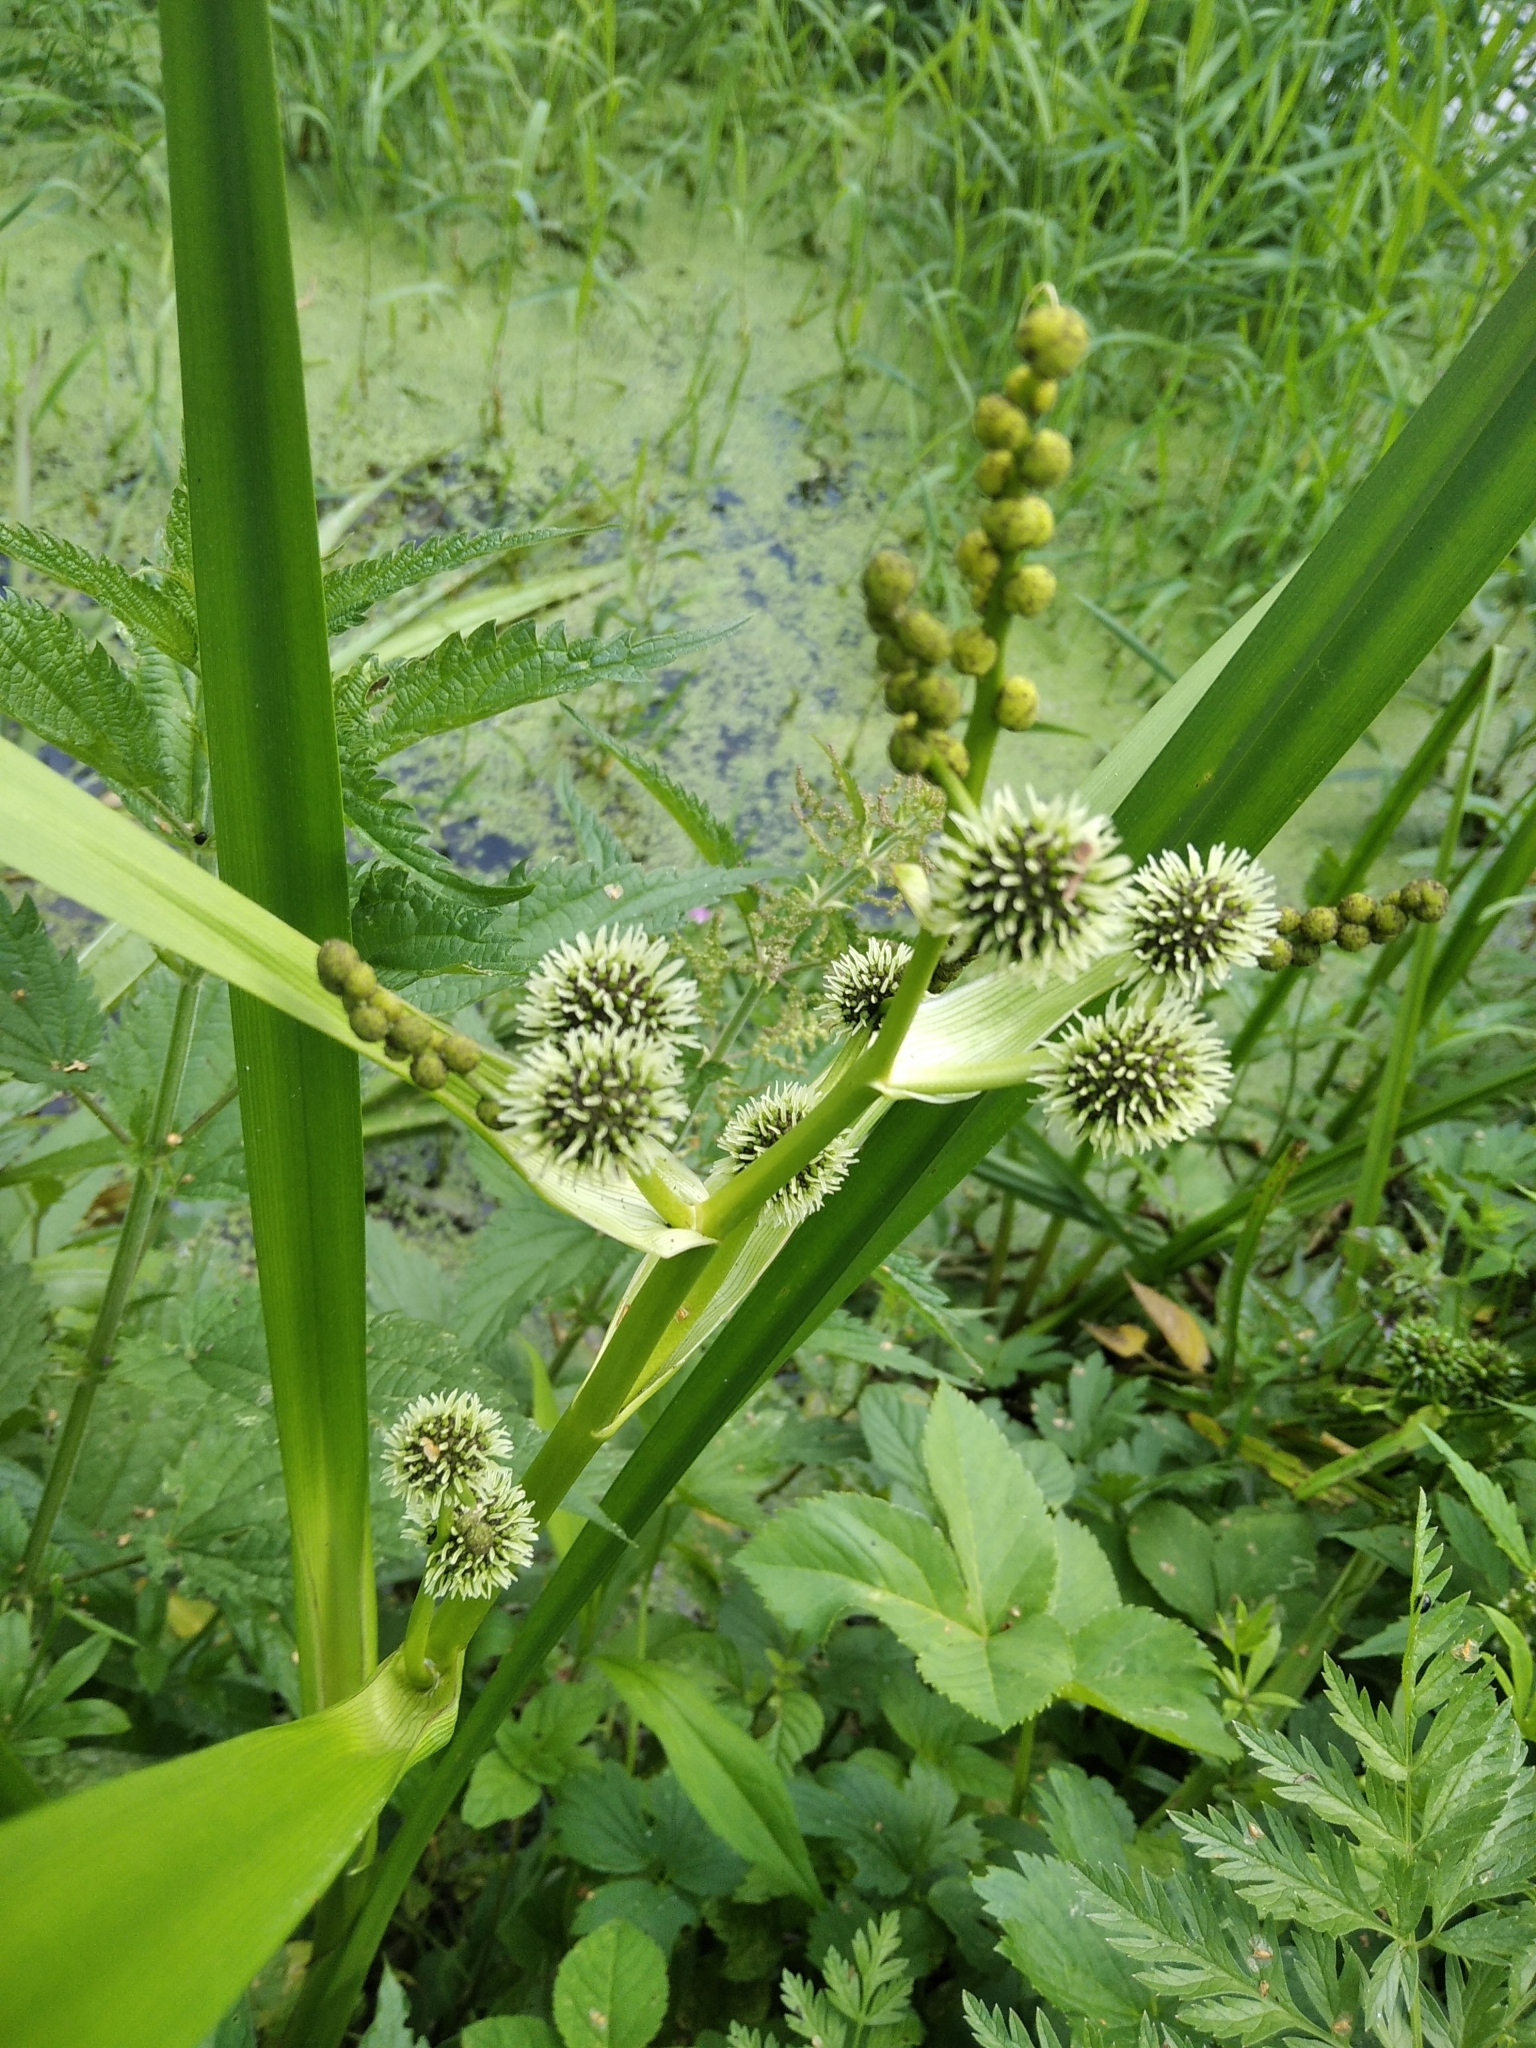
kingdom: Plantae
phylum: Tracheophyta
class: Liliopsida
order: Poales
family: Typhaceae
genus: Sparganium
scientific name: Sparganium erectum
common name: Branched bur-reed
